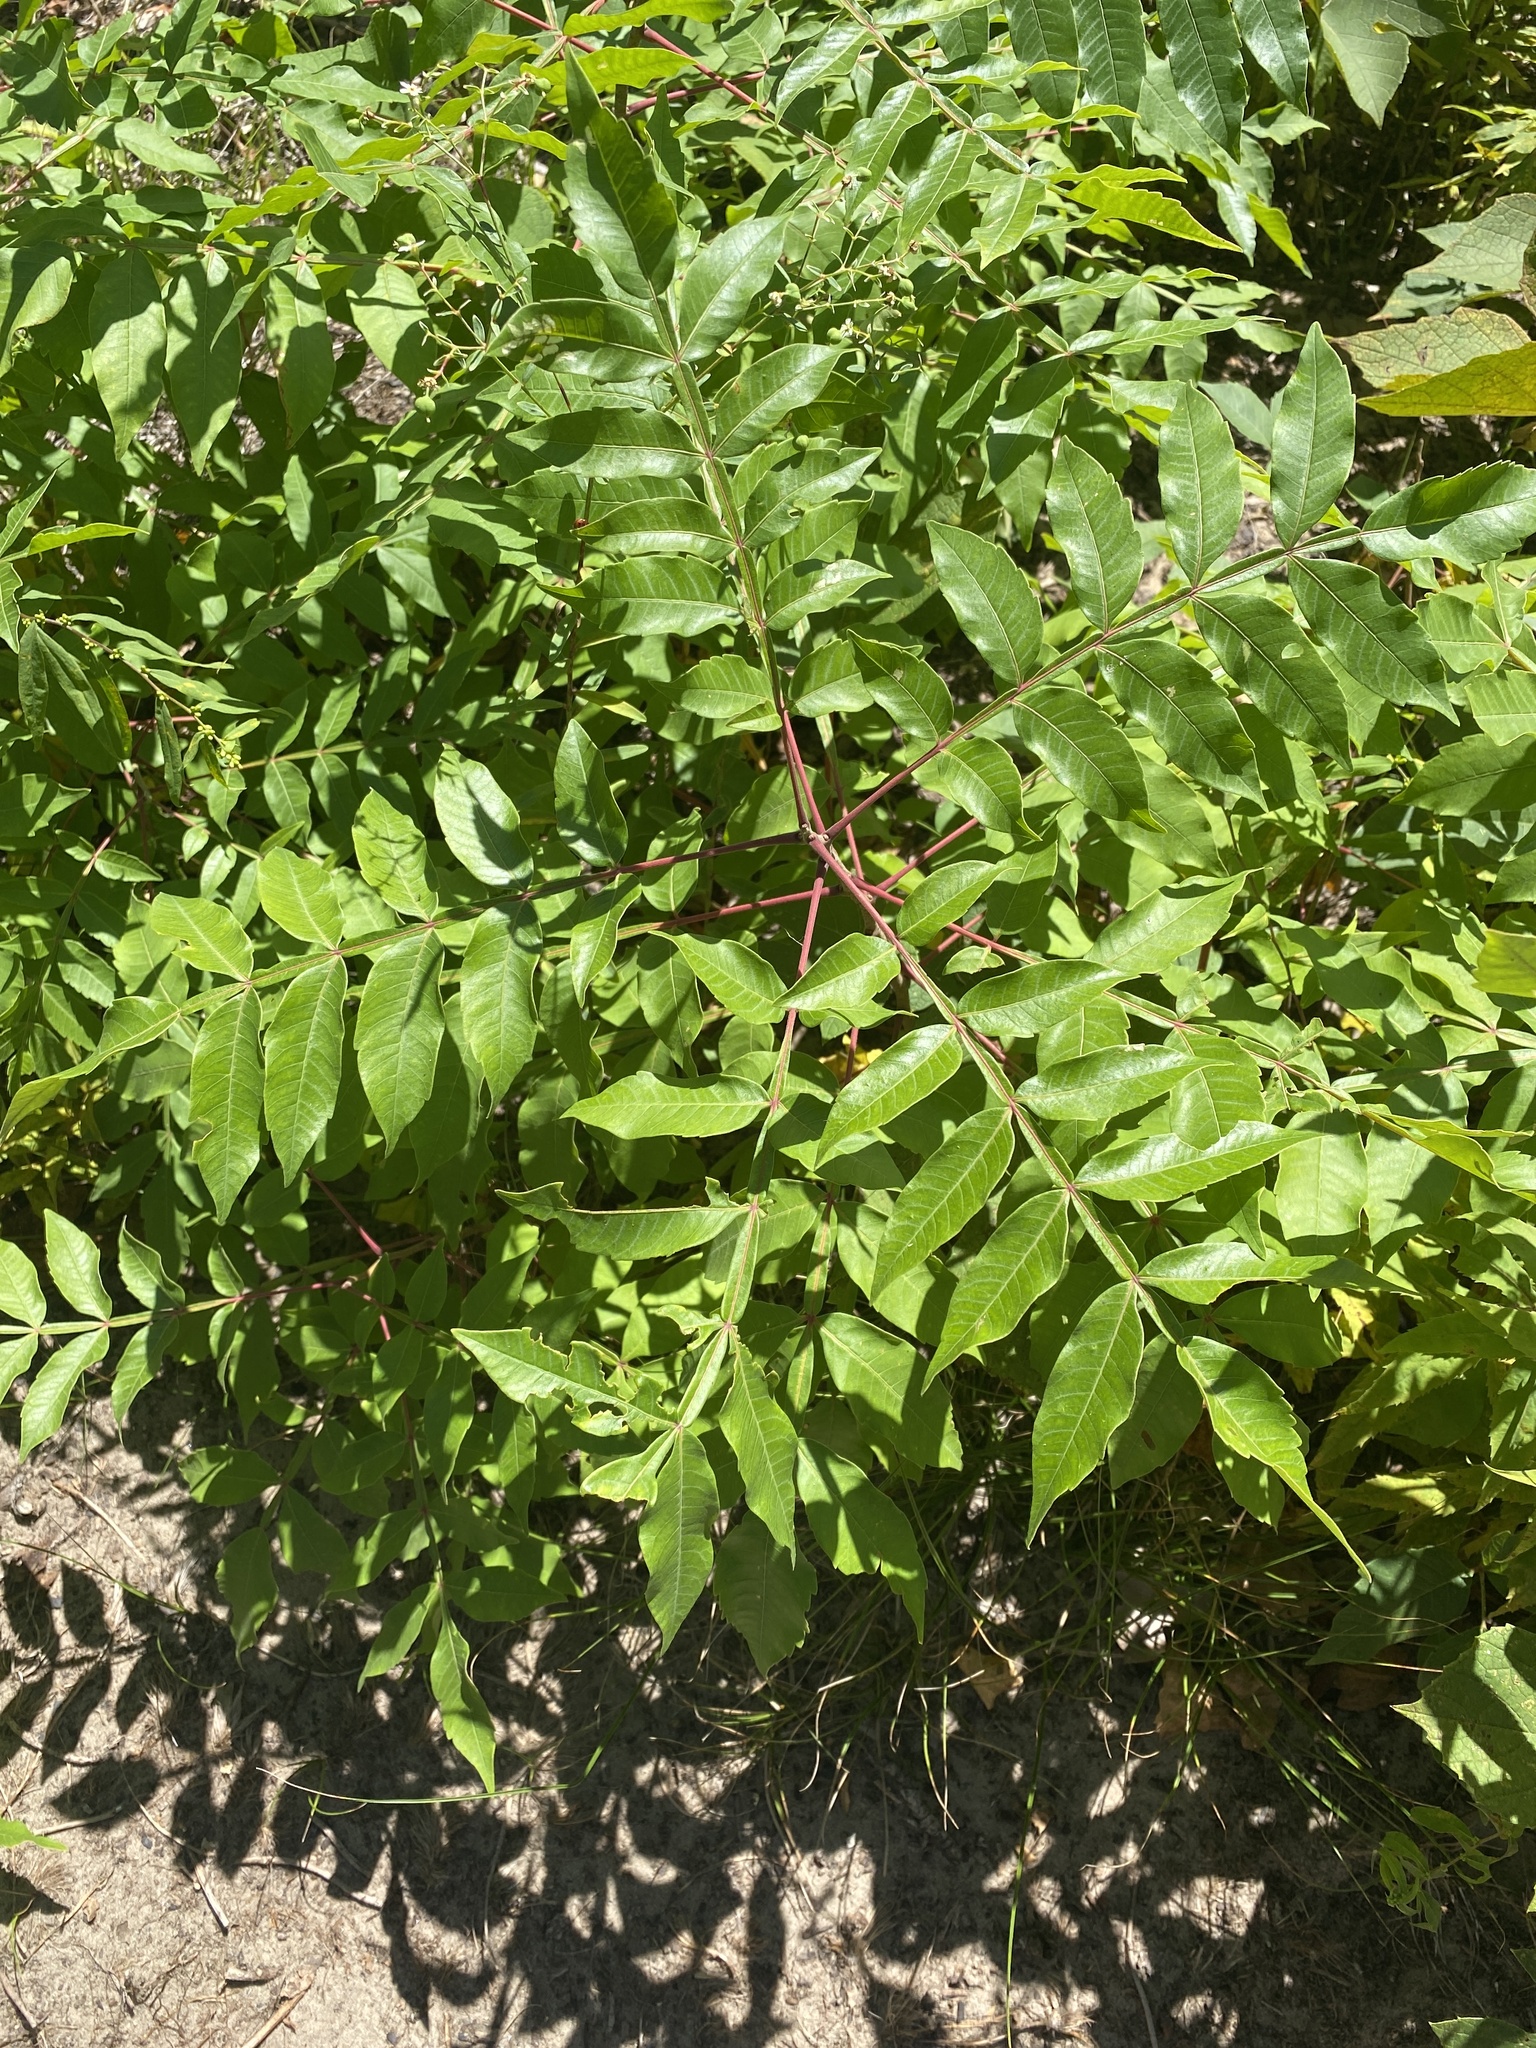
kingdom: Plantae
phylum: Tracheophyta
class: Magnoliopsida
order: Sapindales
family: Anacardiaceae
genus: Rhus
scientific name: Rhus copallina
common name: Shining sumac
